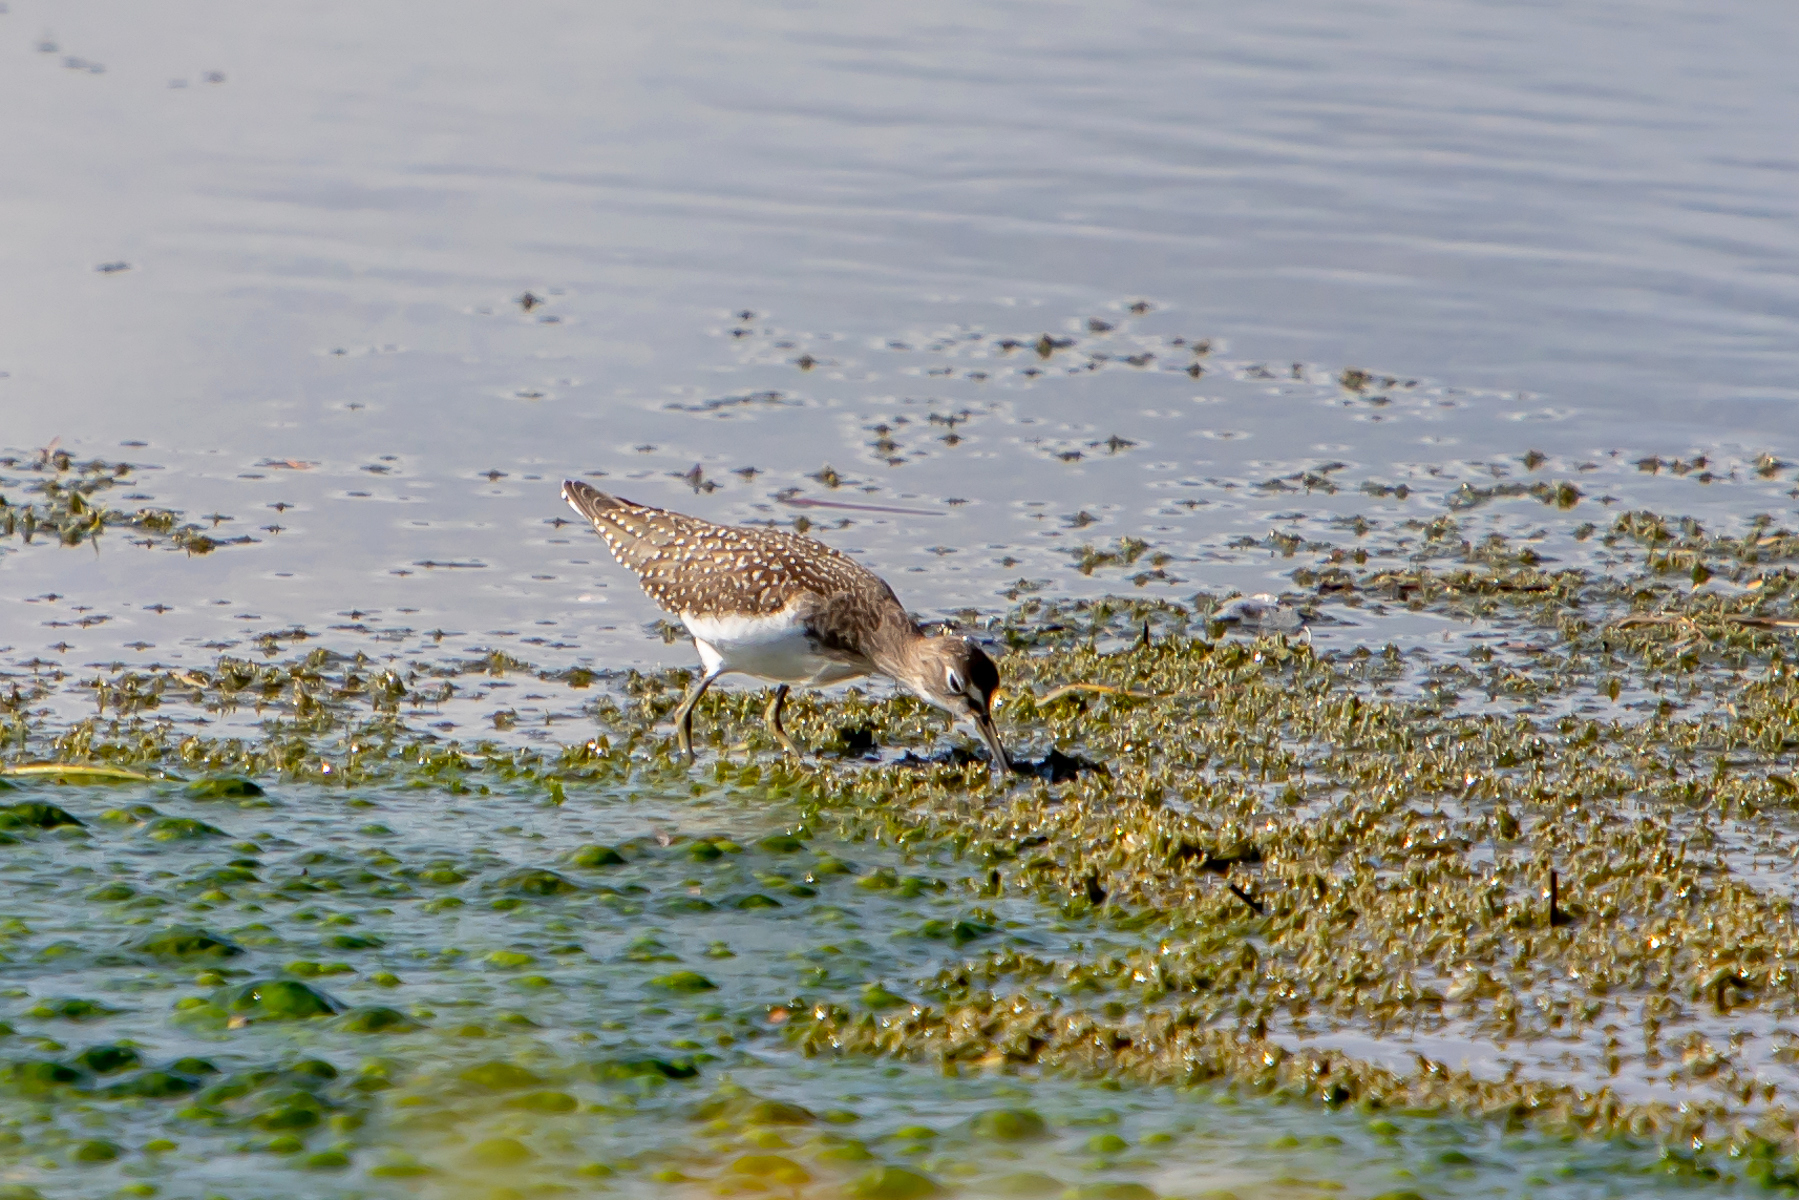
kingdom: Animalia
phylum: Chordata
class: Aves
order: Charadriiformes
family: Scolopacidae
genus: Tringa
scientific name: Tringa solitaria
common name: Solitary sandpiper
